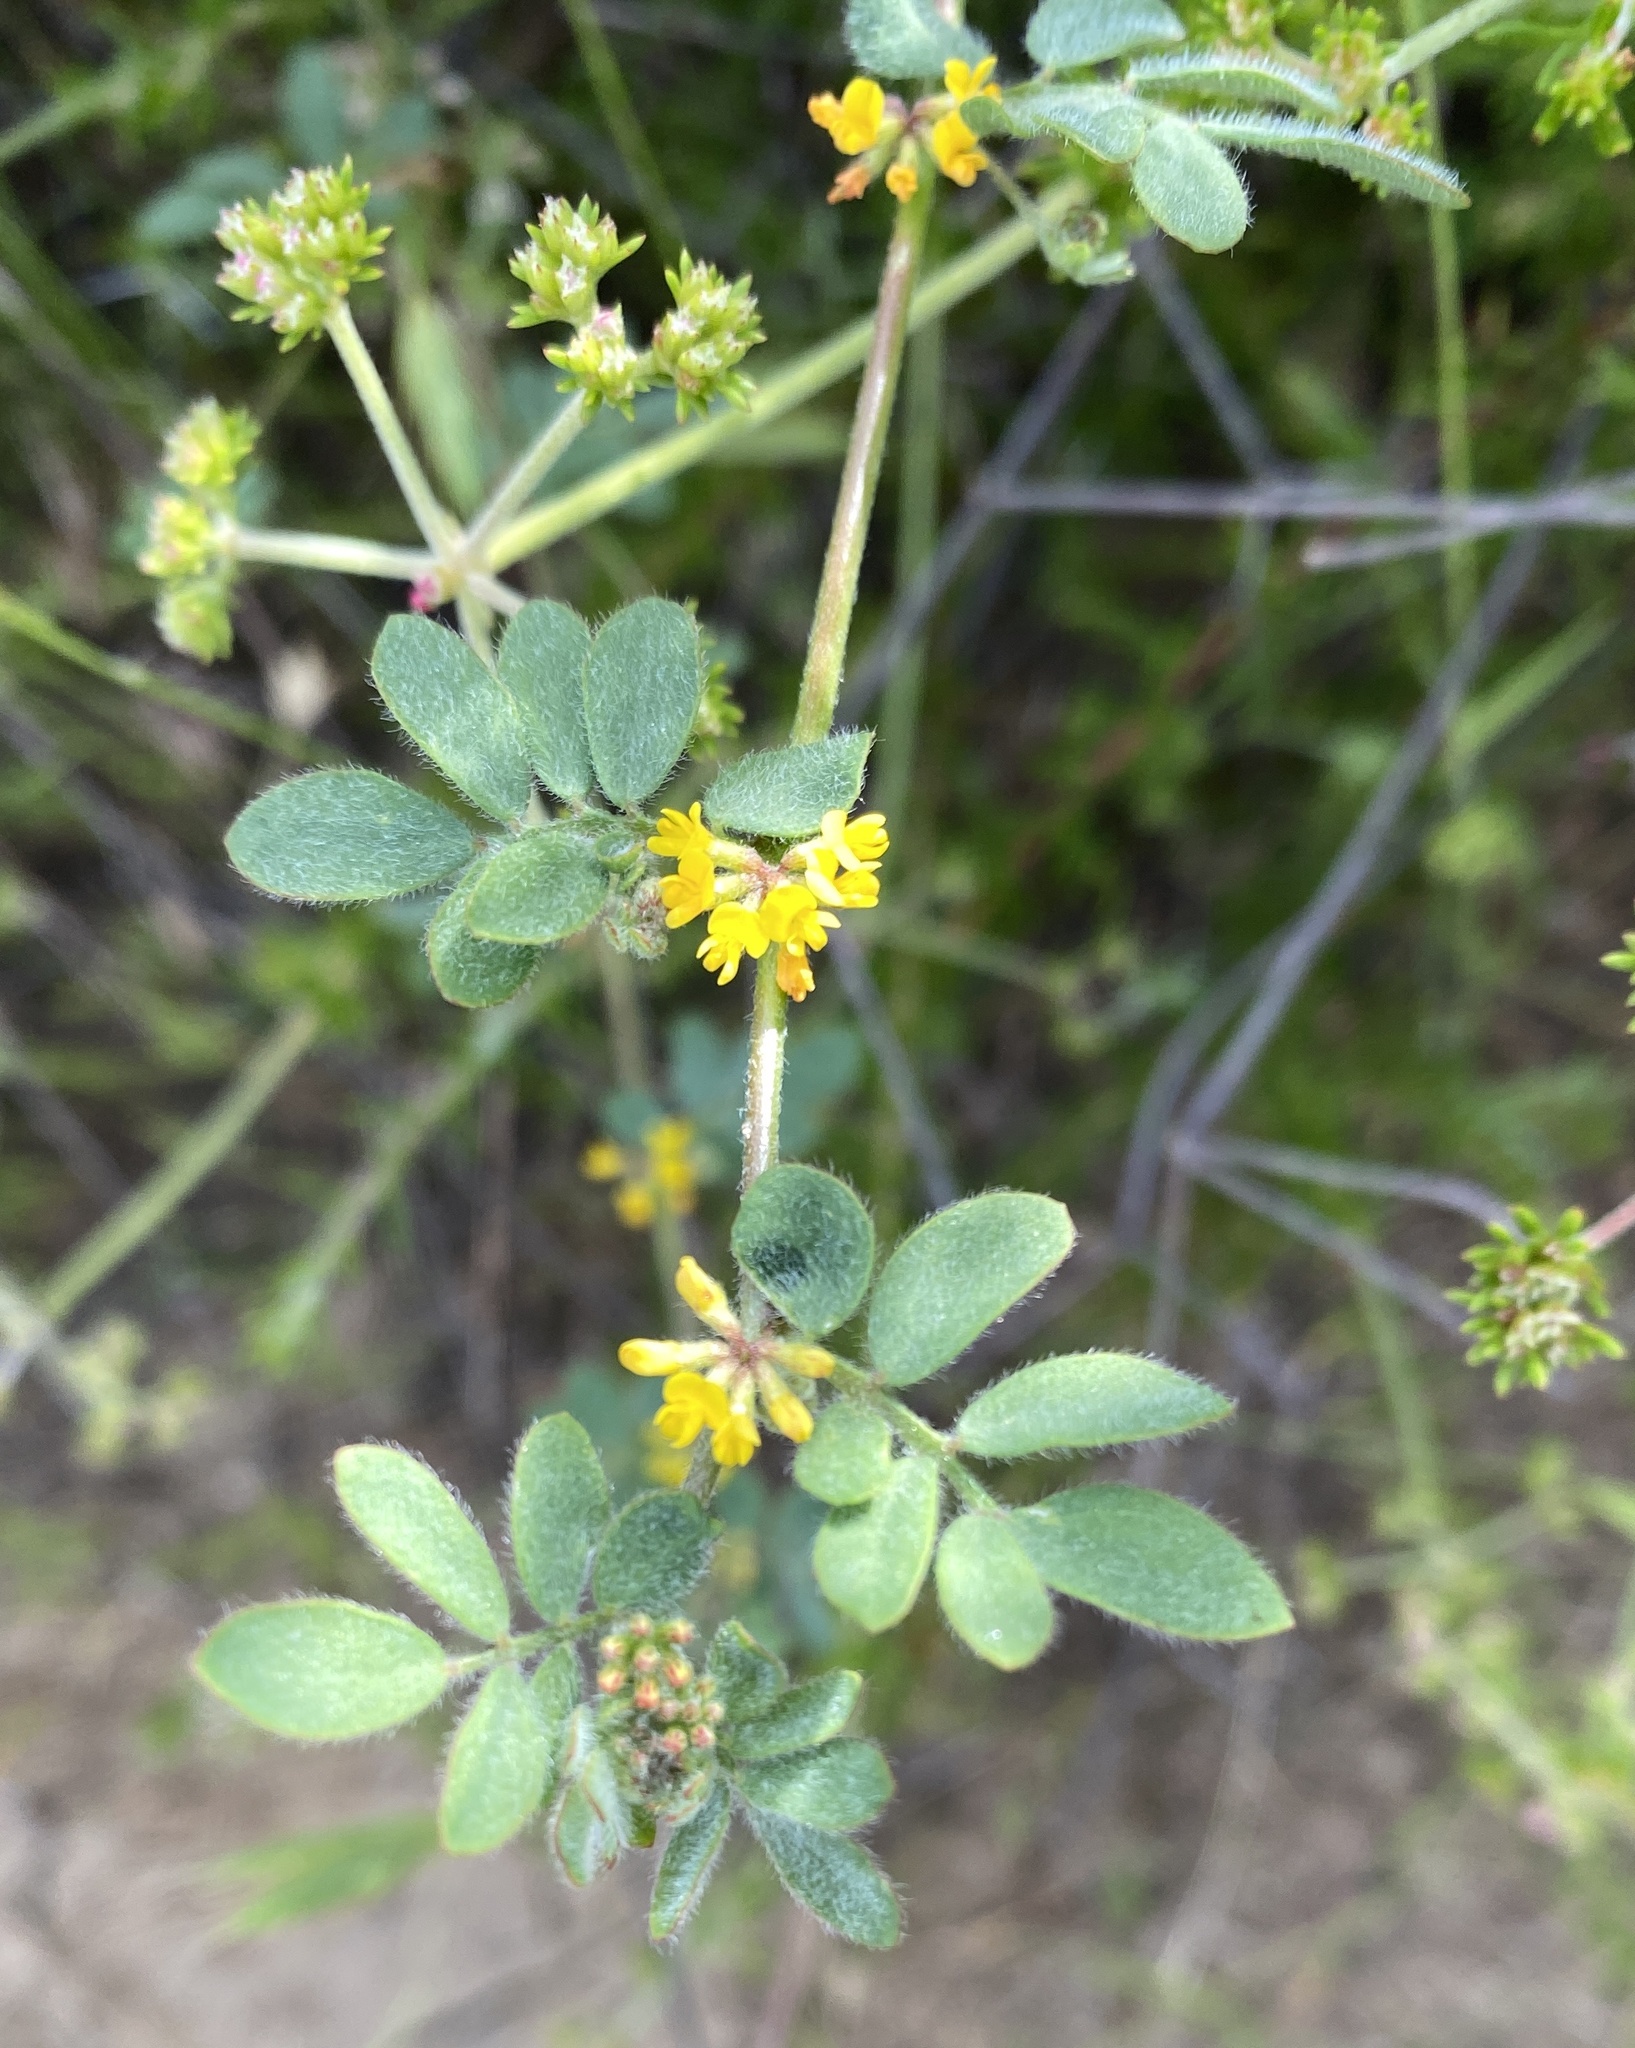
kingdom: Plantae
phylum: Tracheophyta
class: Magnoliopsida
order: Fabales
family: Fabaceae
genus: Acmispon
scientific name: Acmispon micranthus
